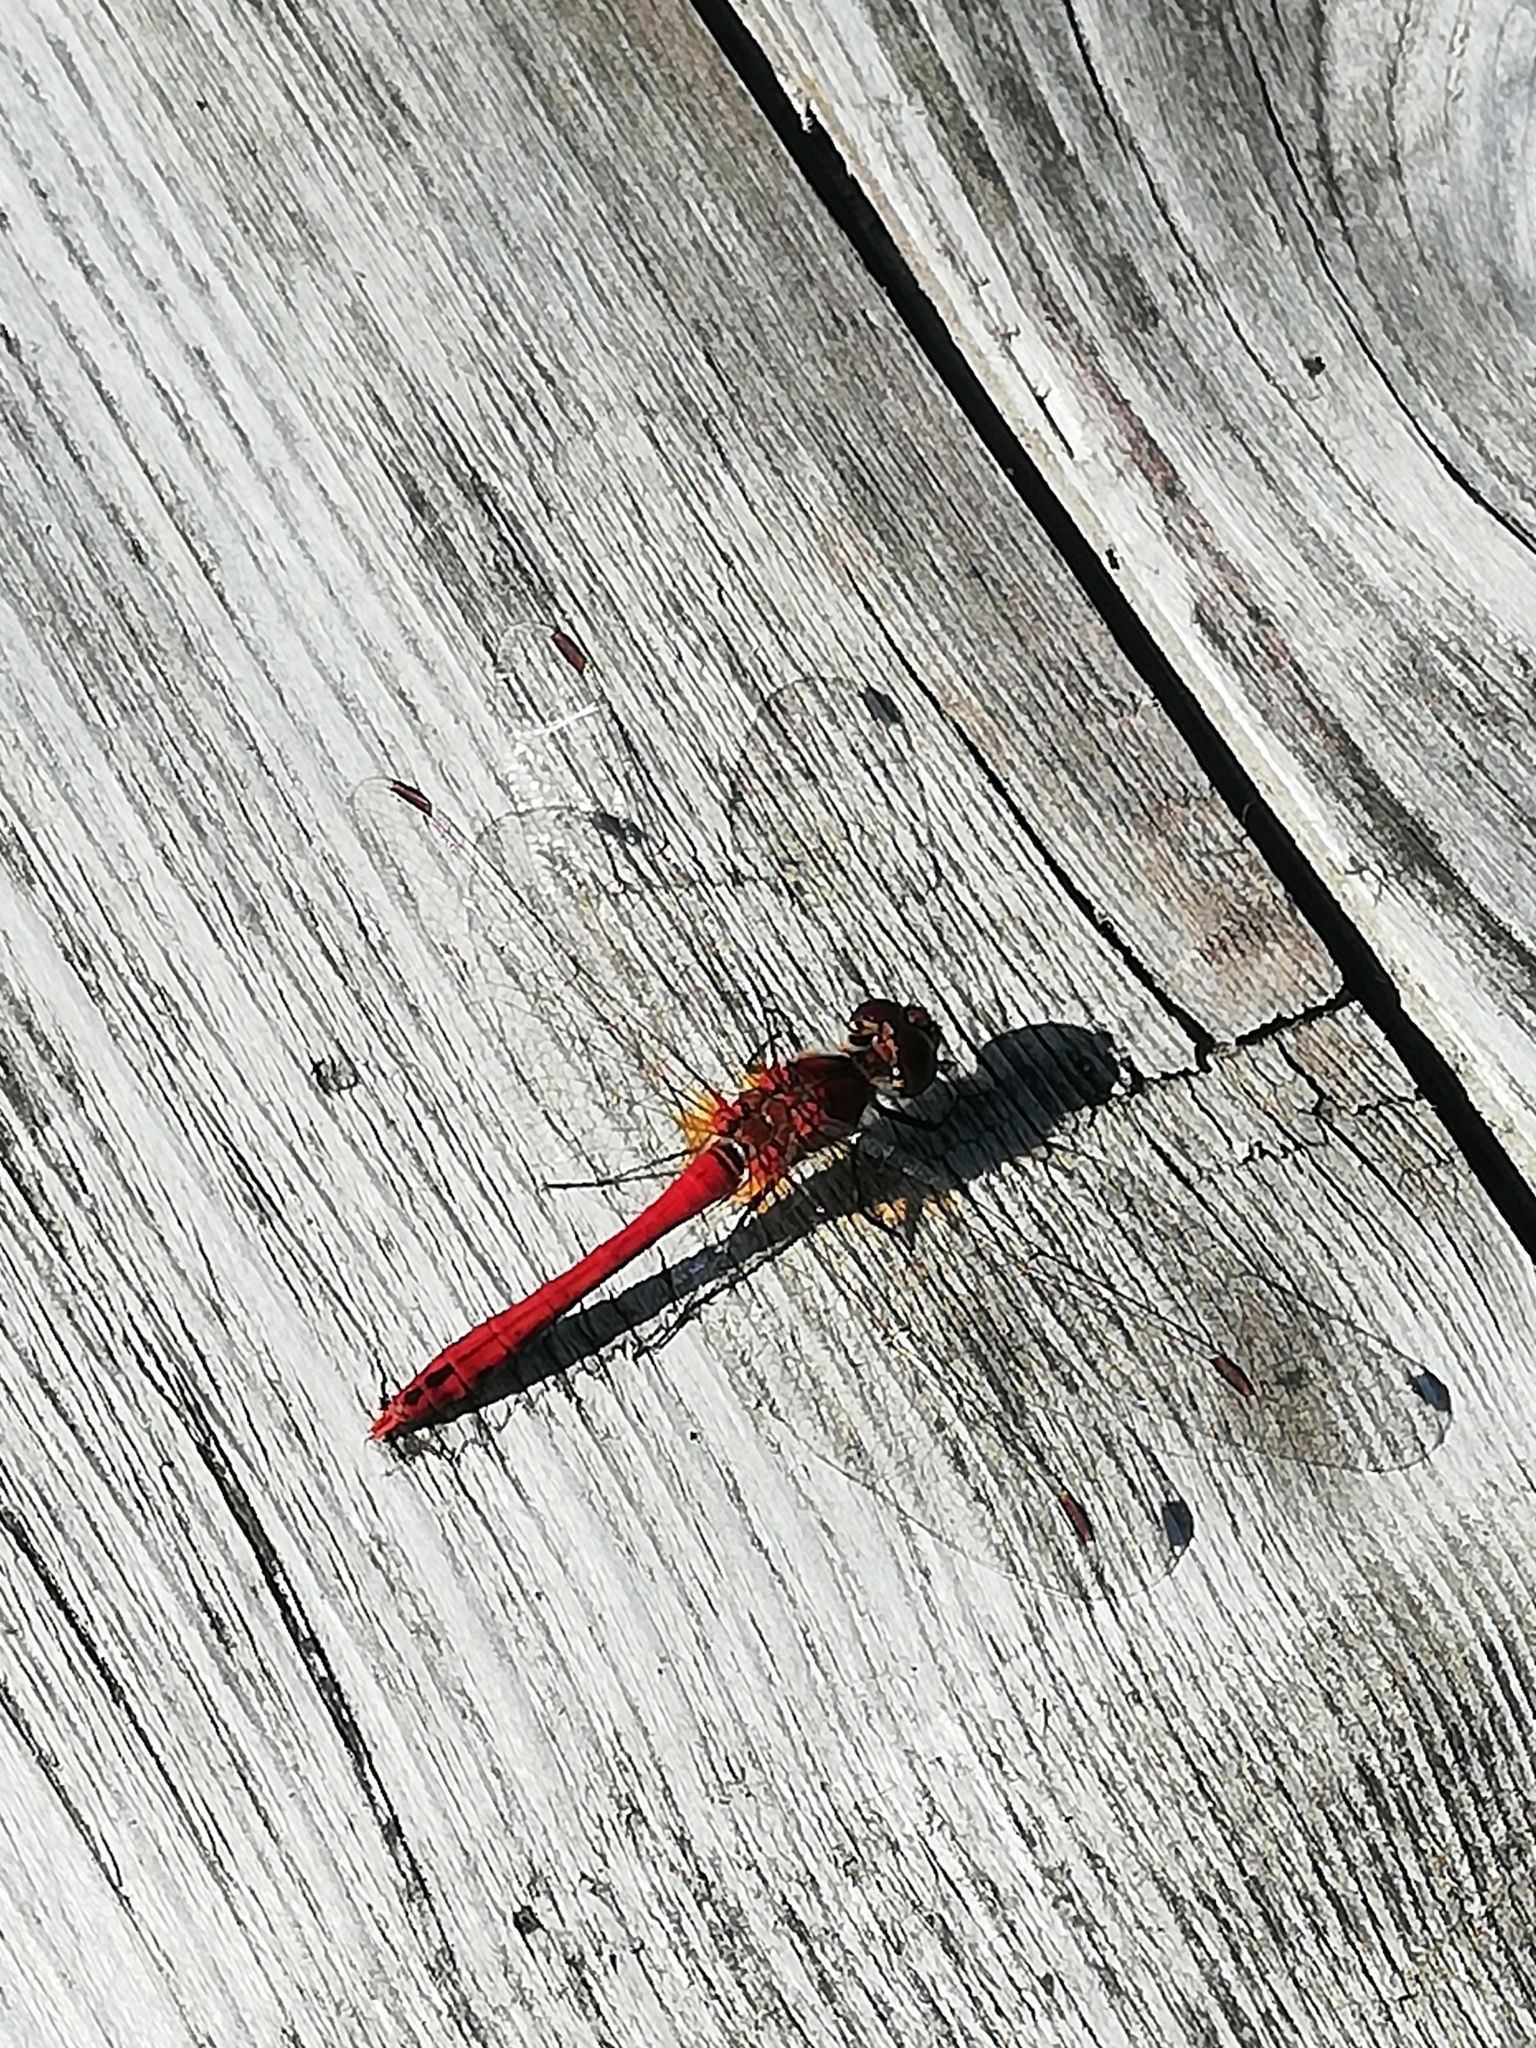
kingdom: Animalia
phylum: Arthropoda
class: Insecta
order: Odonata
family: Libellulidae
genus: Sympetrum
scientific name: Sympetrum sanguineum
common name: Ruddy darter
